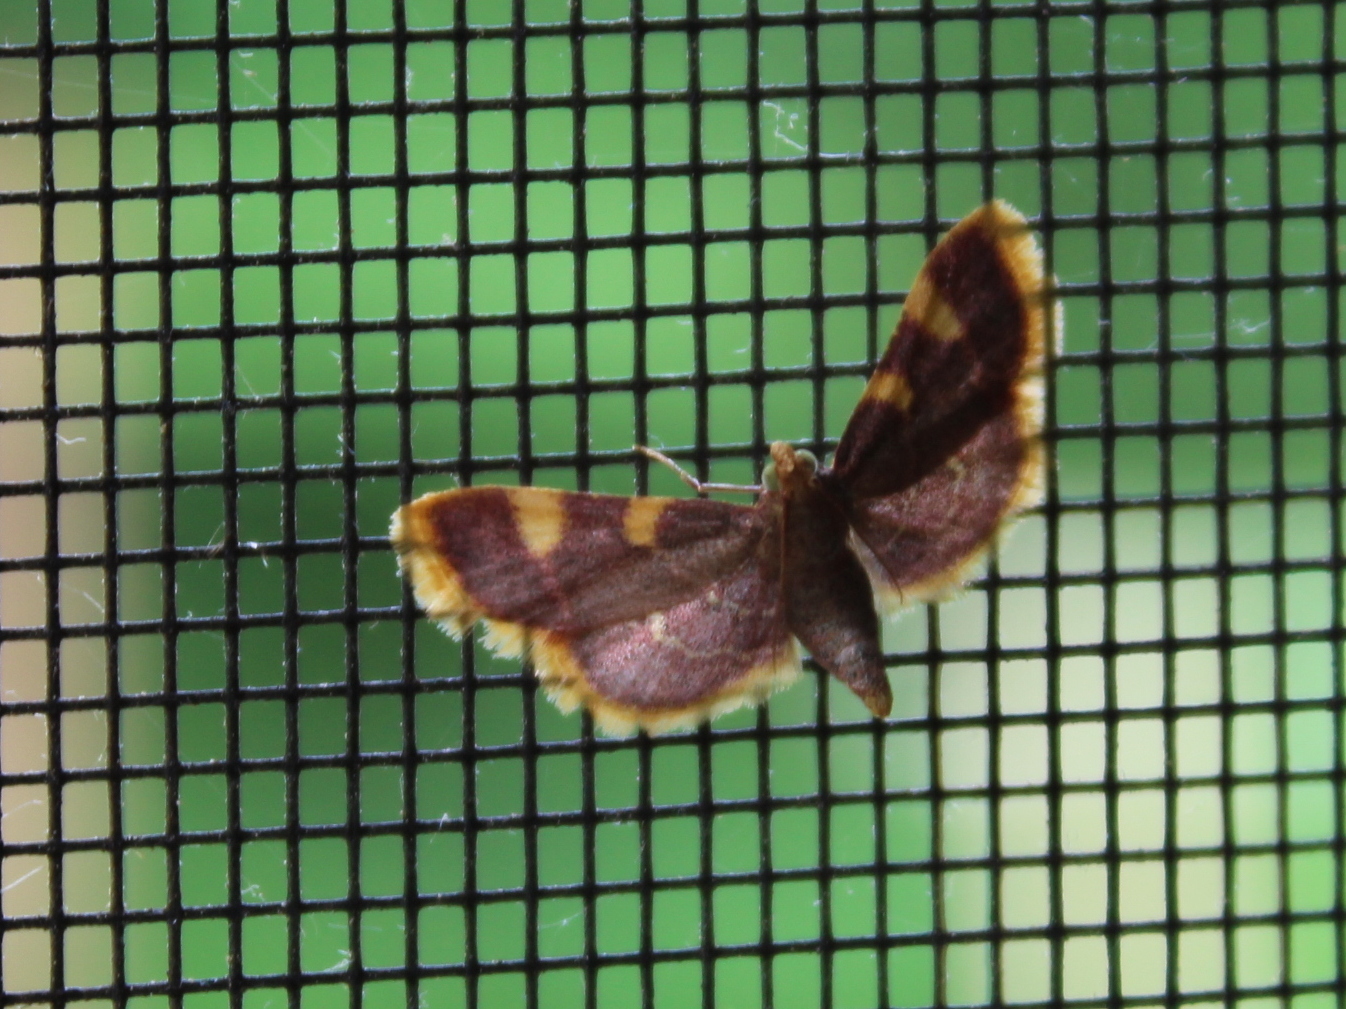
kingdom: Animalia
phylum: Arthropoda
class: Insecta
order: Lepidoptera
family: Pyralidae
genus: Hypsopygia
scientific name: Hypsopygia costalis
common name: Gold triangle
